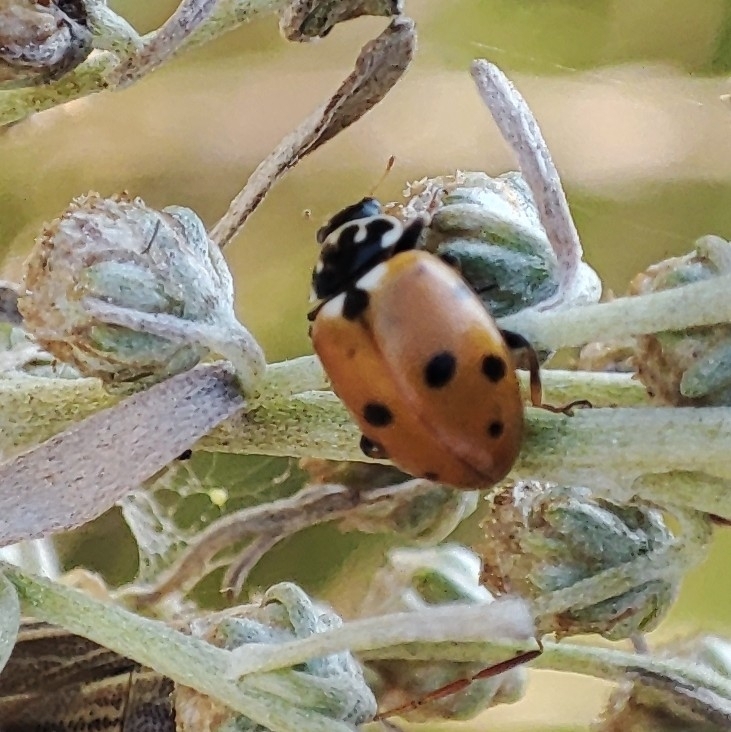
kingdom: Animalia
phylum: Arthropoda
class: Insecta
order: Coleoptera
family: Coccinellidae
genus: Hippodamia
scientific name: Hippodamia variegata
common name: Ladybird beetle
